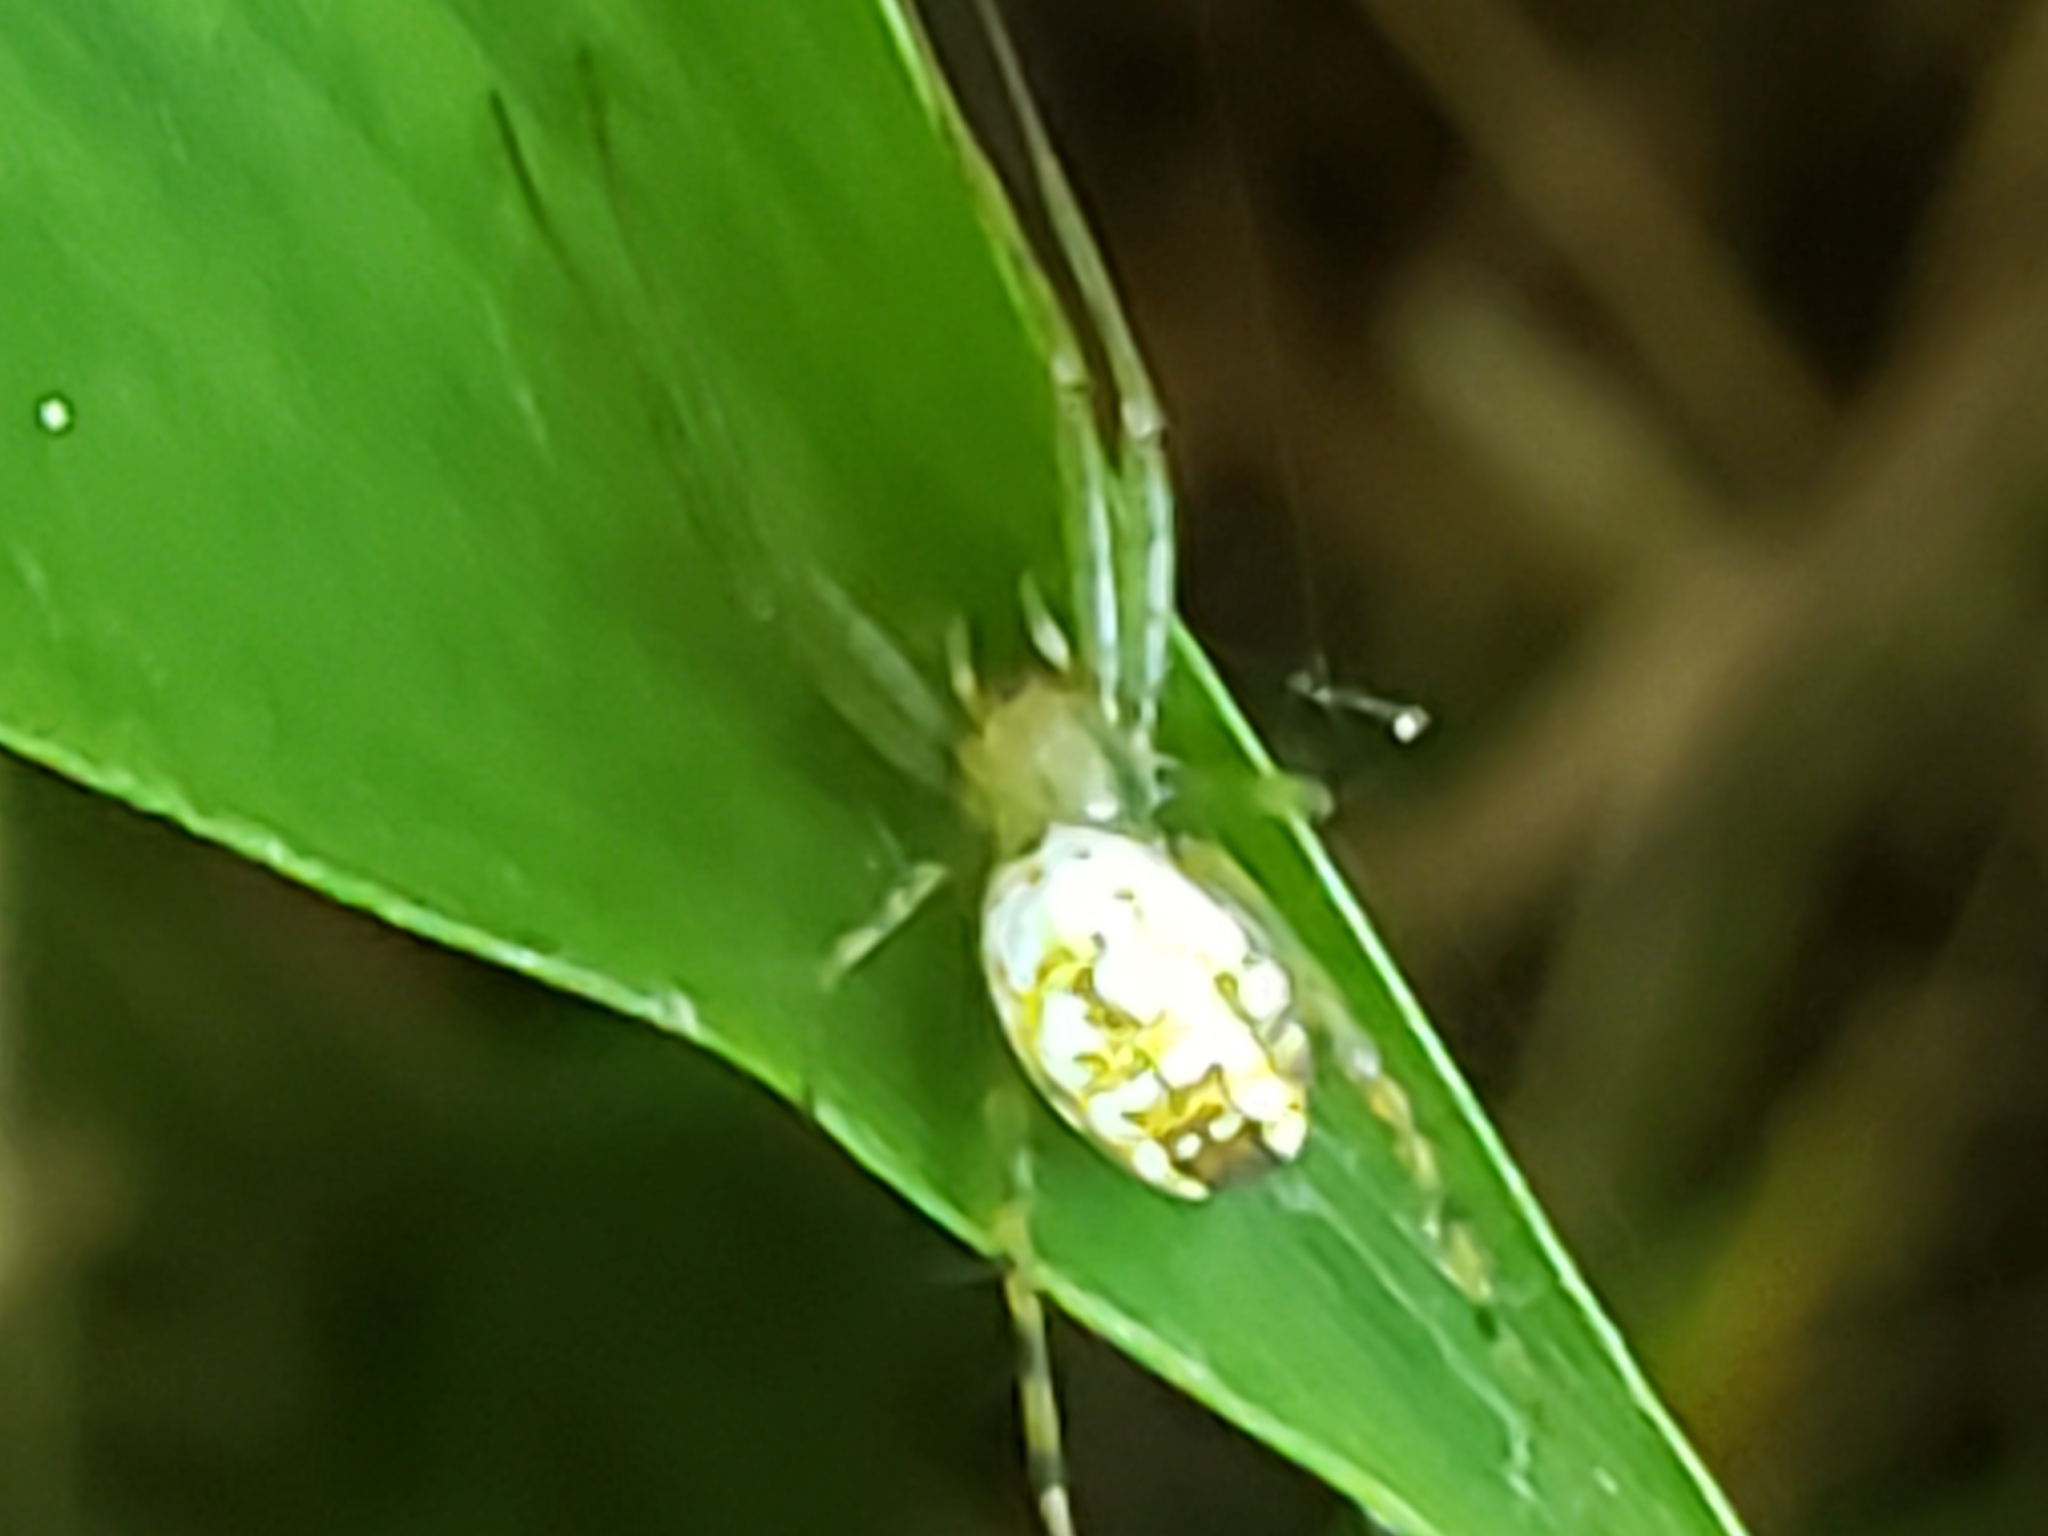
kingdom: Animalia
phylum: Arthropoda
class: Arachnida
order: Araneae
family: Araneidae
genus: Mangora
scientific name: Mangora spiculata
